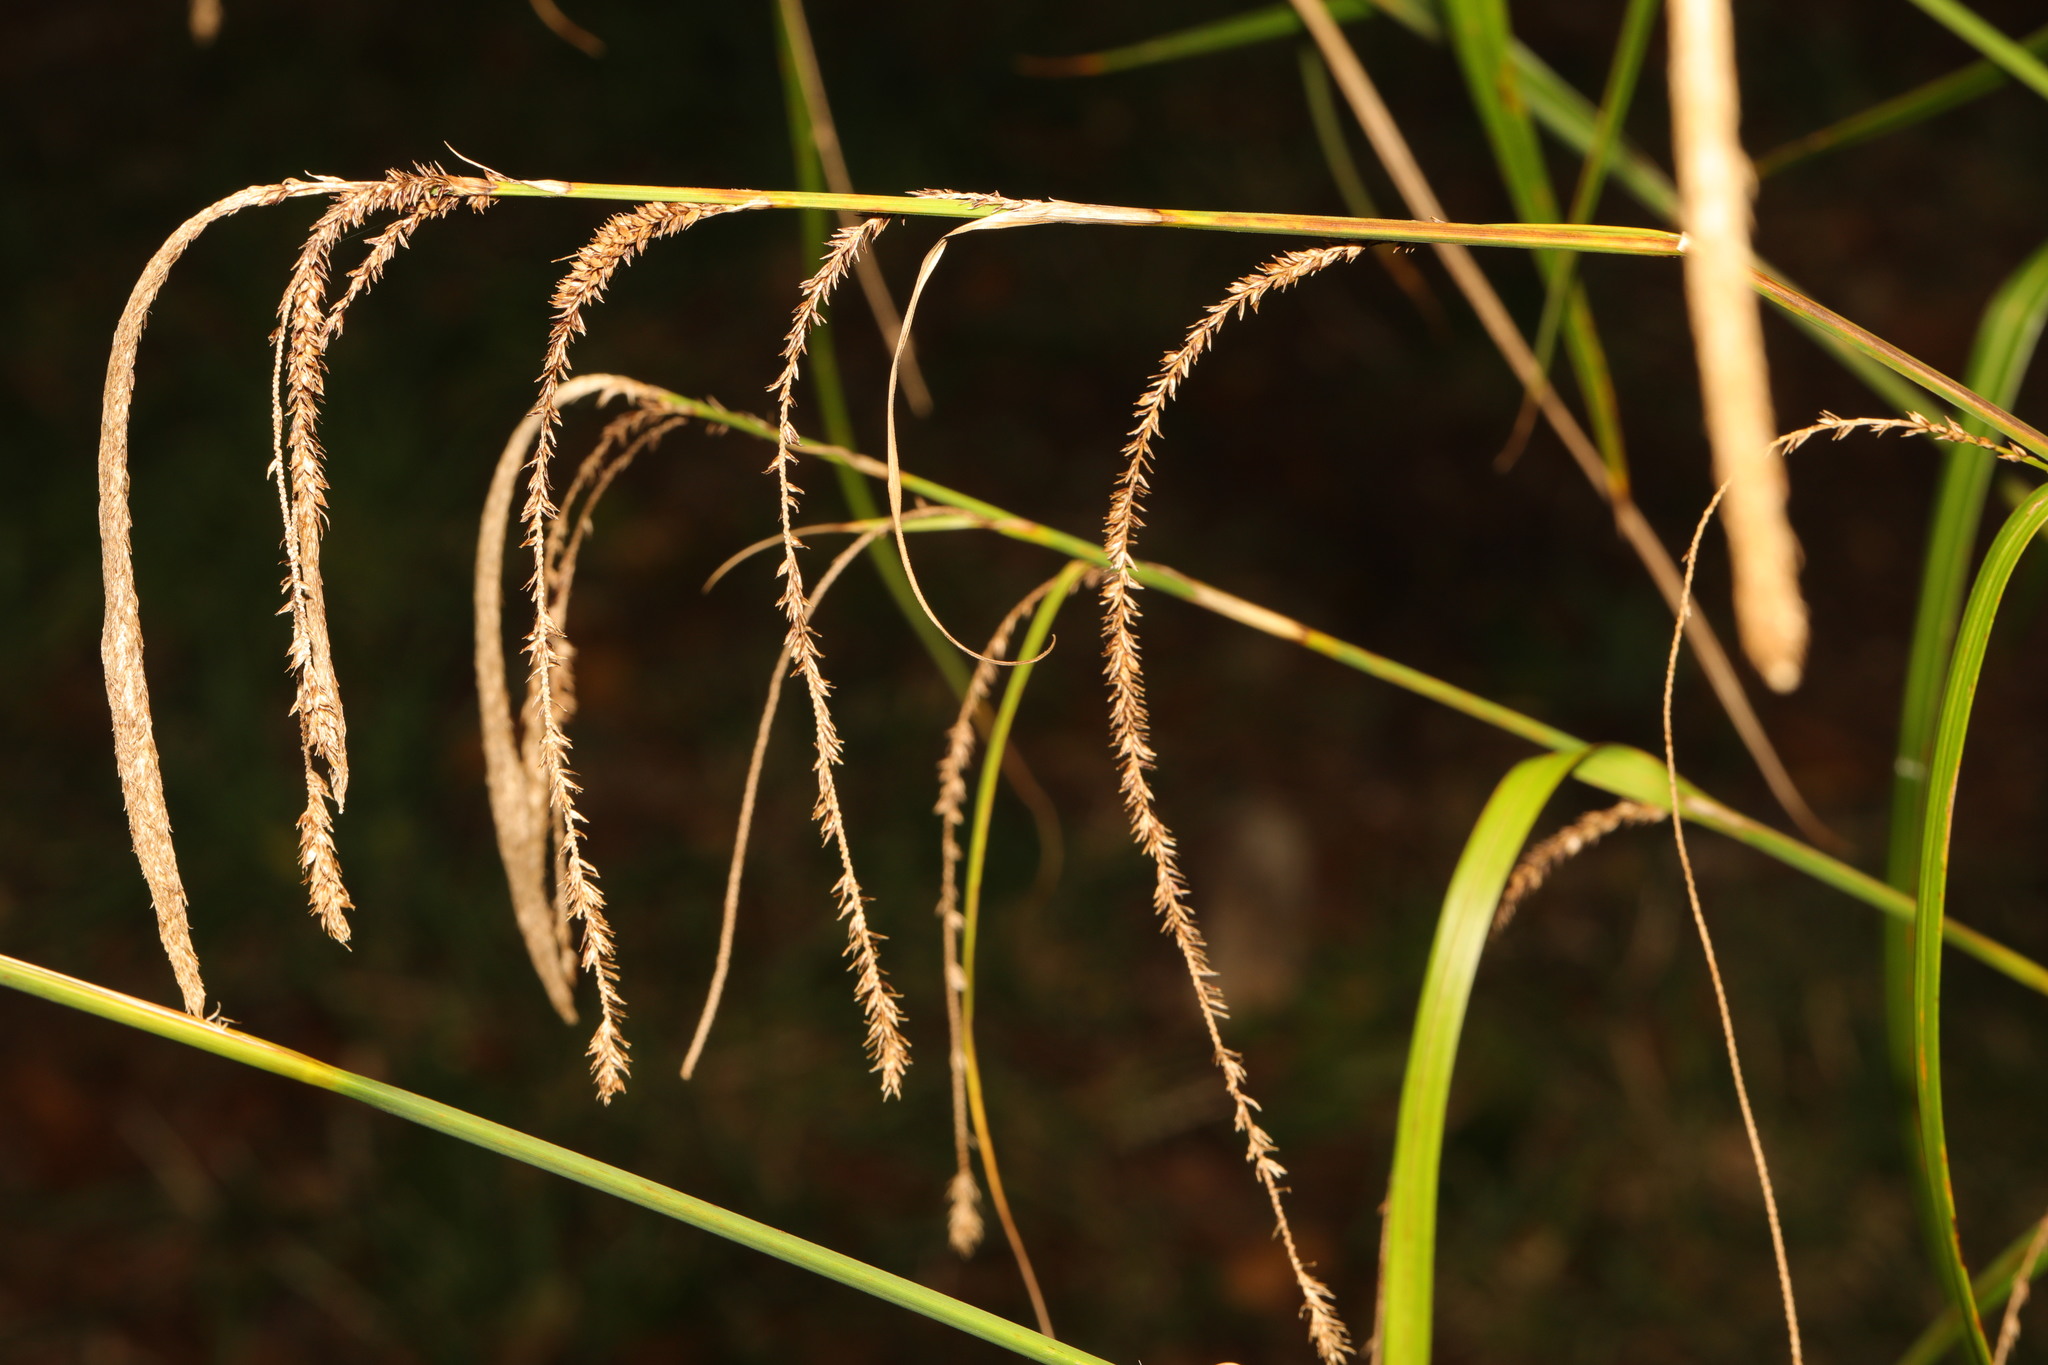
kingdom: Plantae
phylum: Tracheophyta
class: Liliopsida
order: Poales
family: Cyperaceae
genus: Carex
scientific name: Carex pendula
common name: Pendulous sedge
